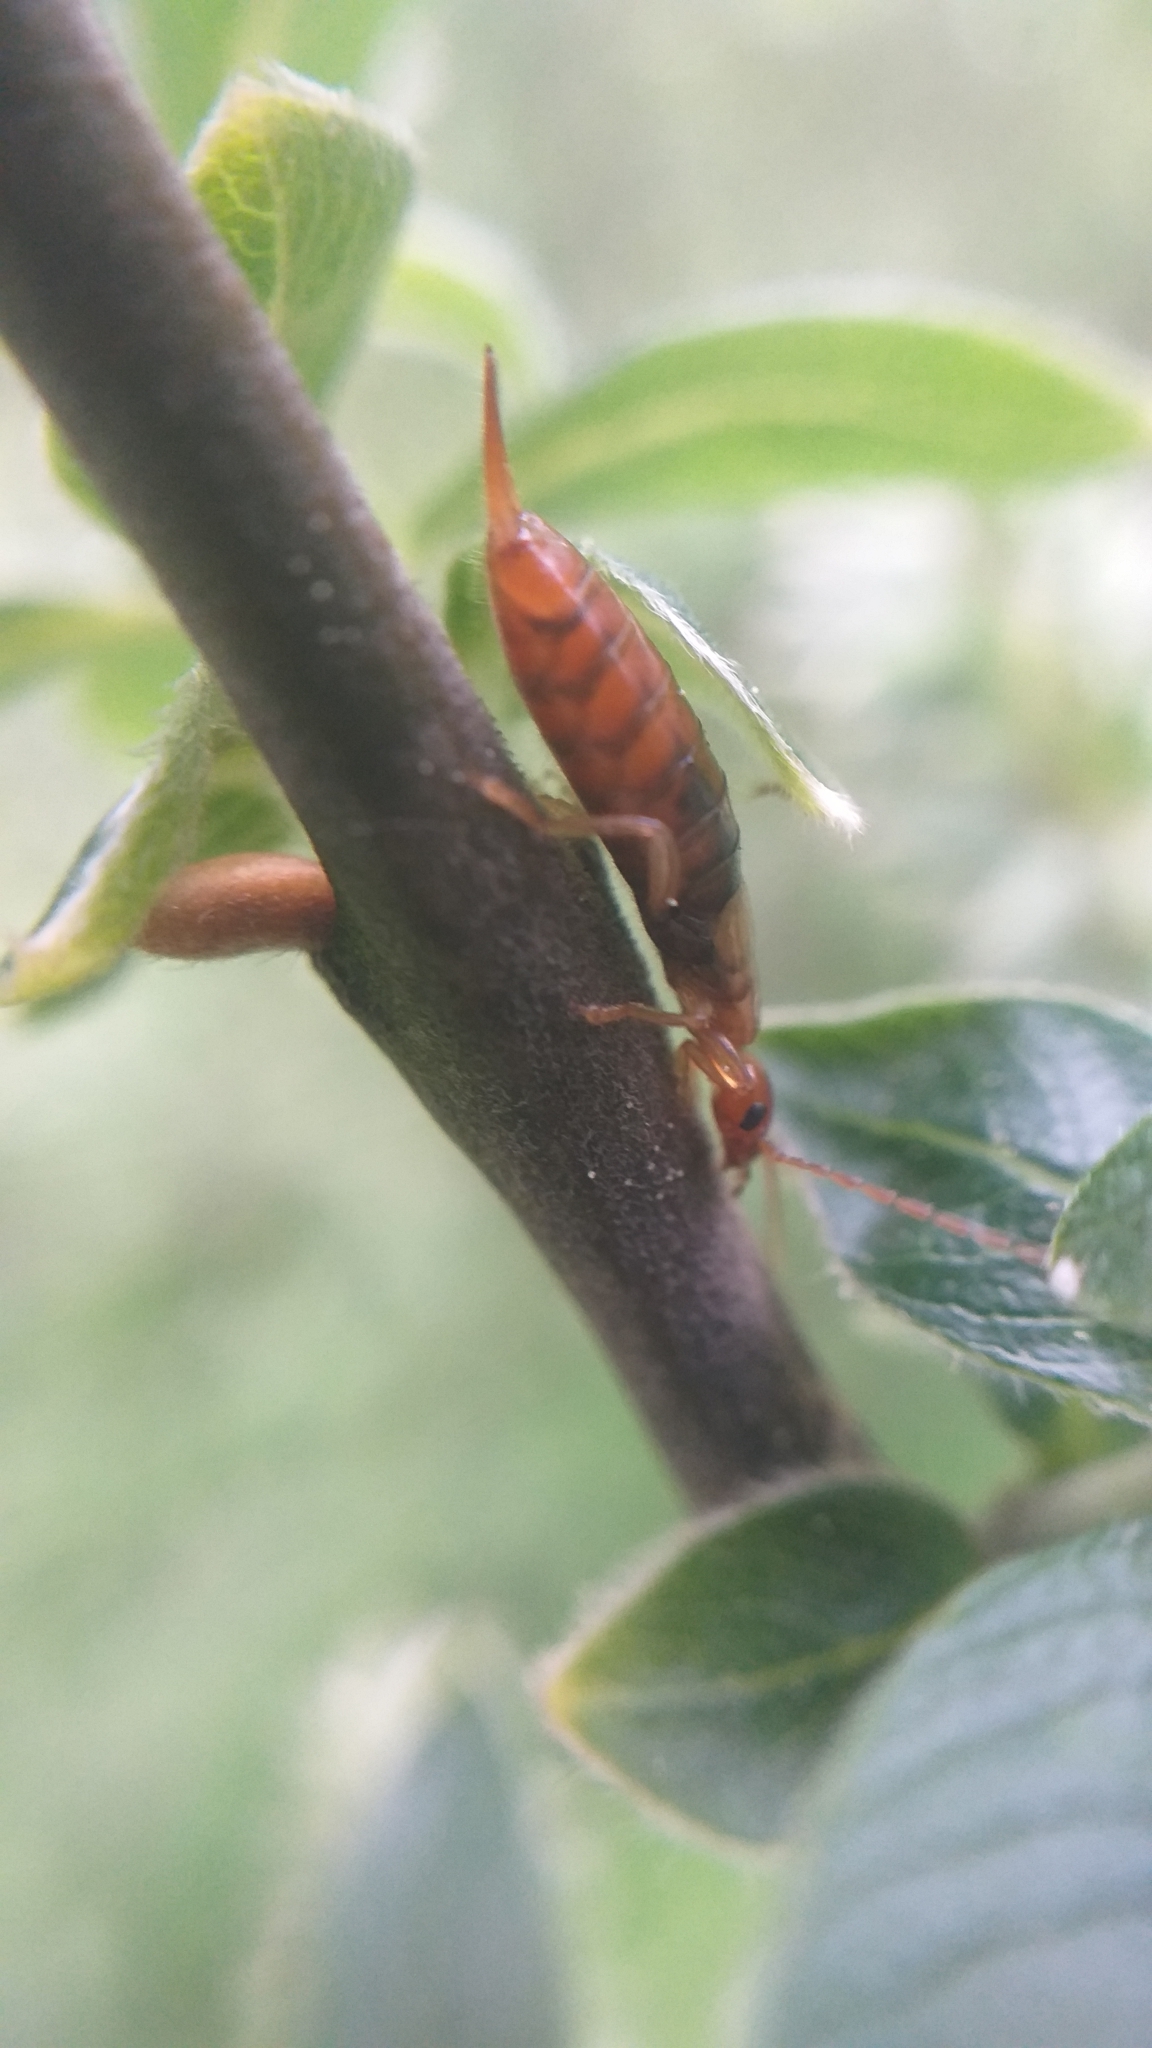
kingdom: Animalia
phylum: Arthropoda
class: Insecta
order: Dermaptera
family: Forficulidae
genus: Apterygida
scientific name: Apterygida albipennis
